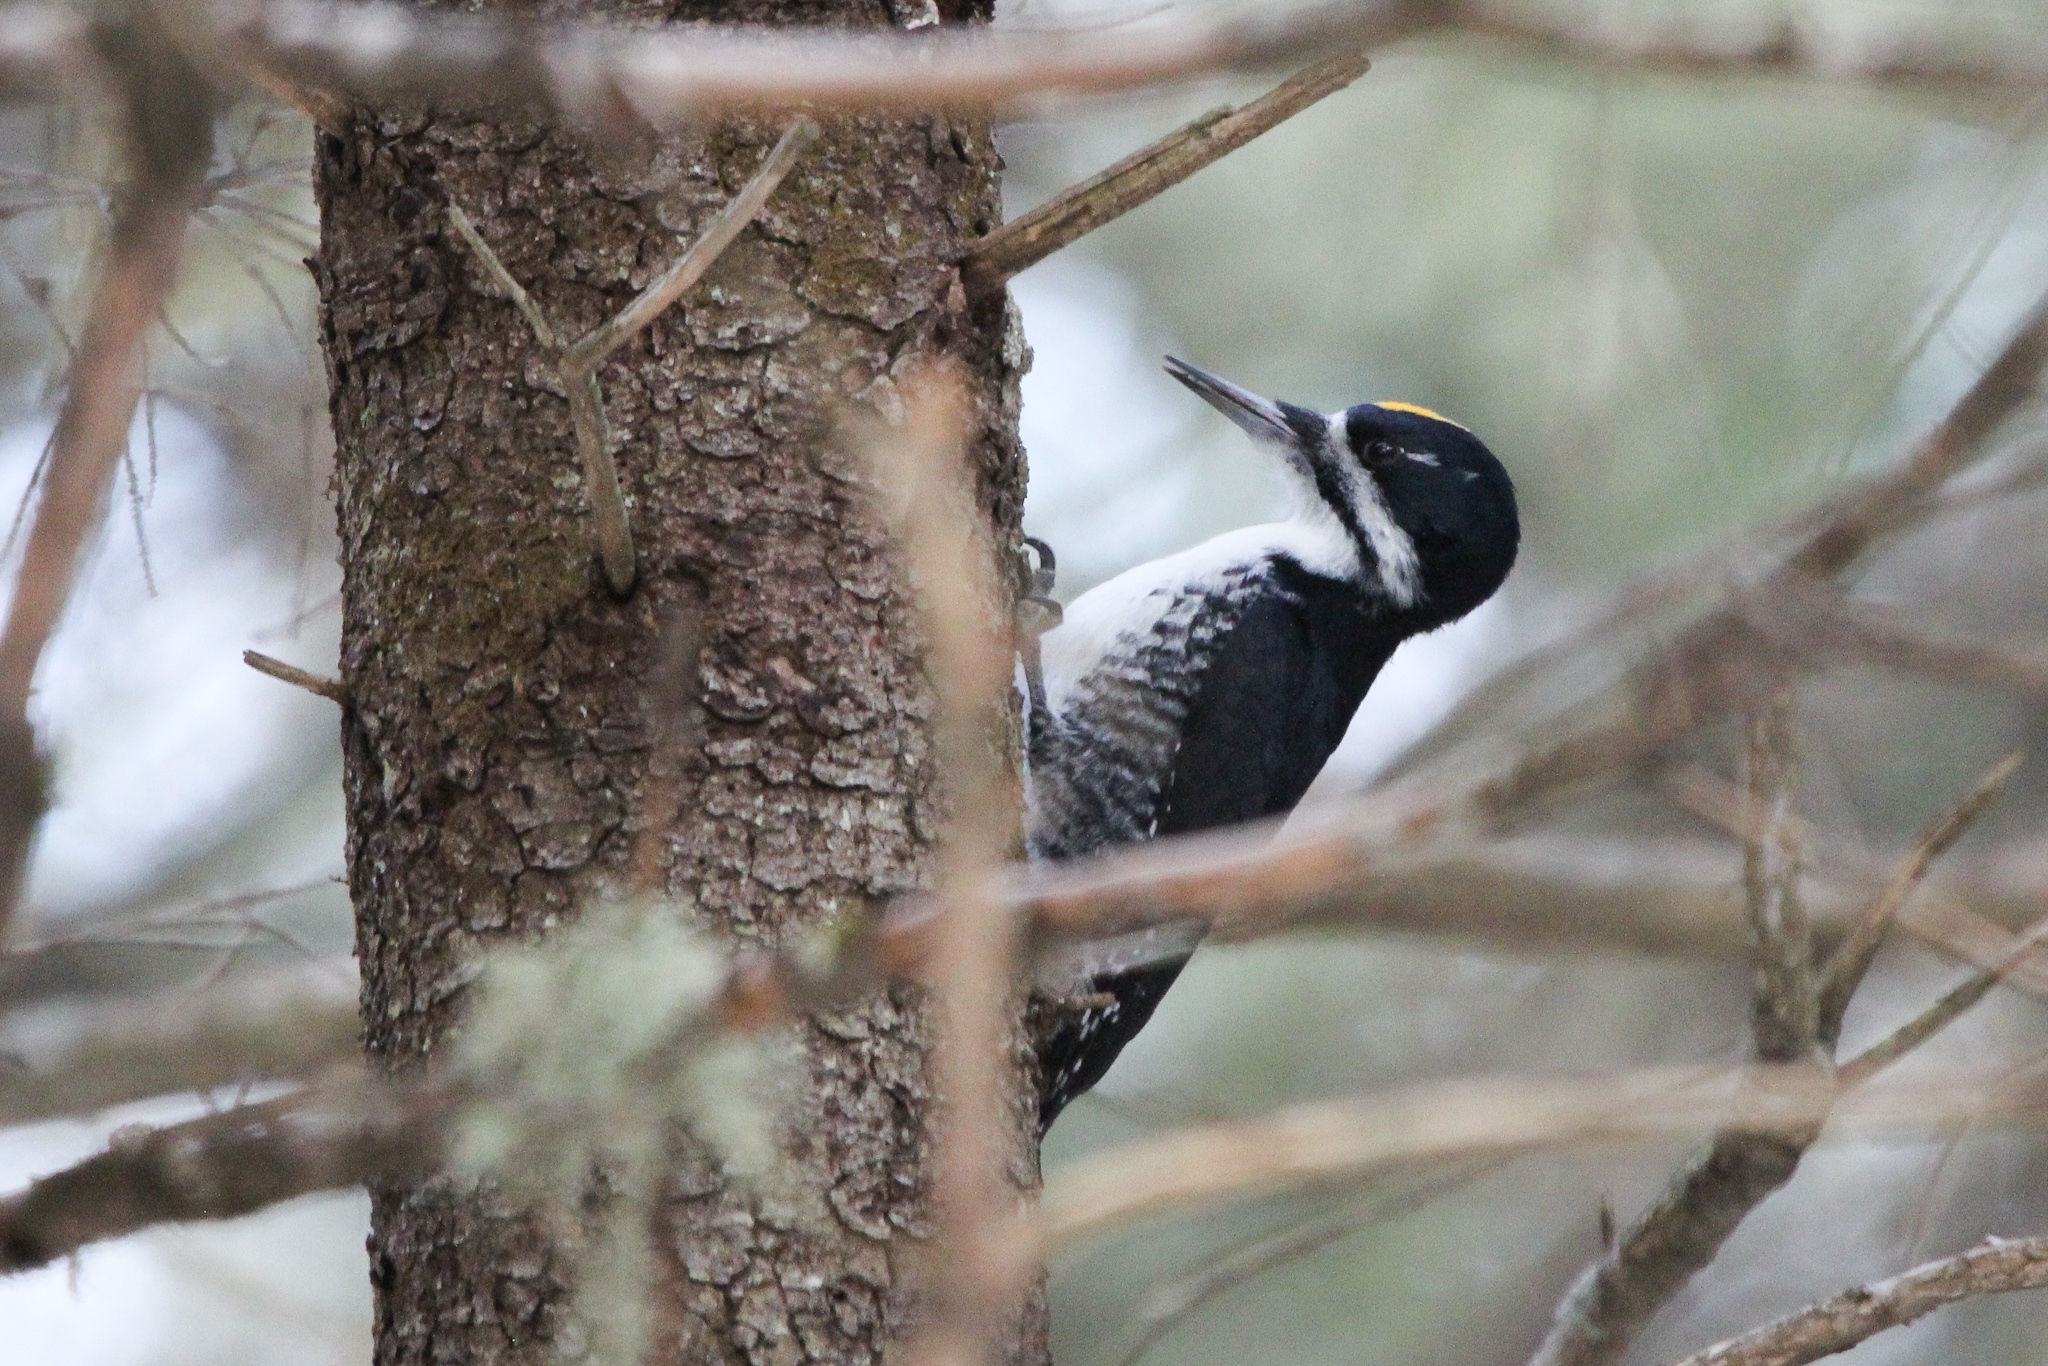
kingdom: Animalia
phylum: Chordata
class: Aves
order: Piciformes
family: Picidae
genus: Picoides
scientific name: Picoides arcticus
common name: Black-backed woodpecker
